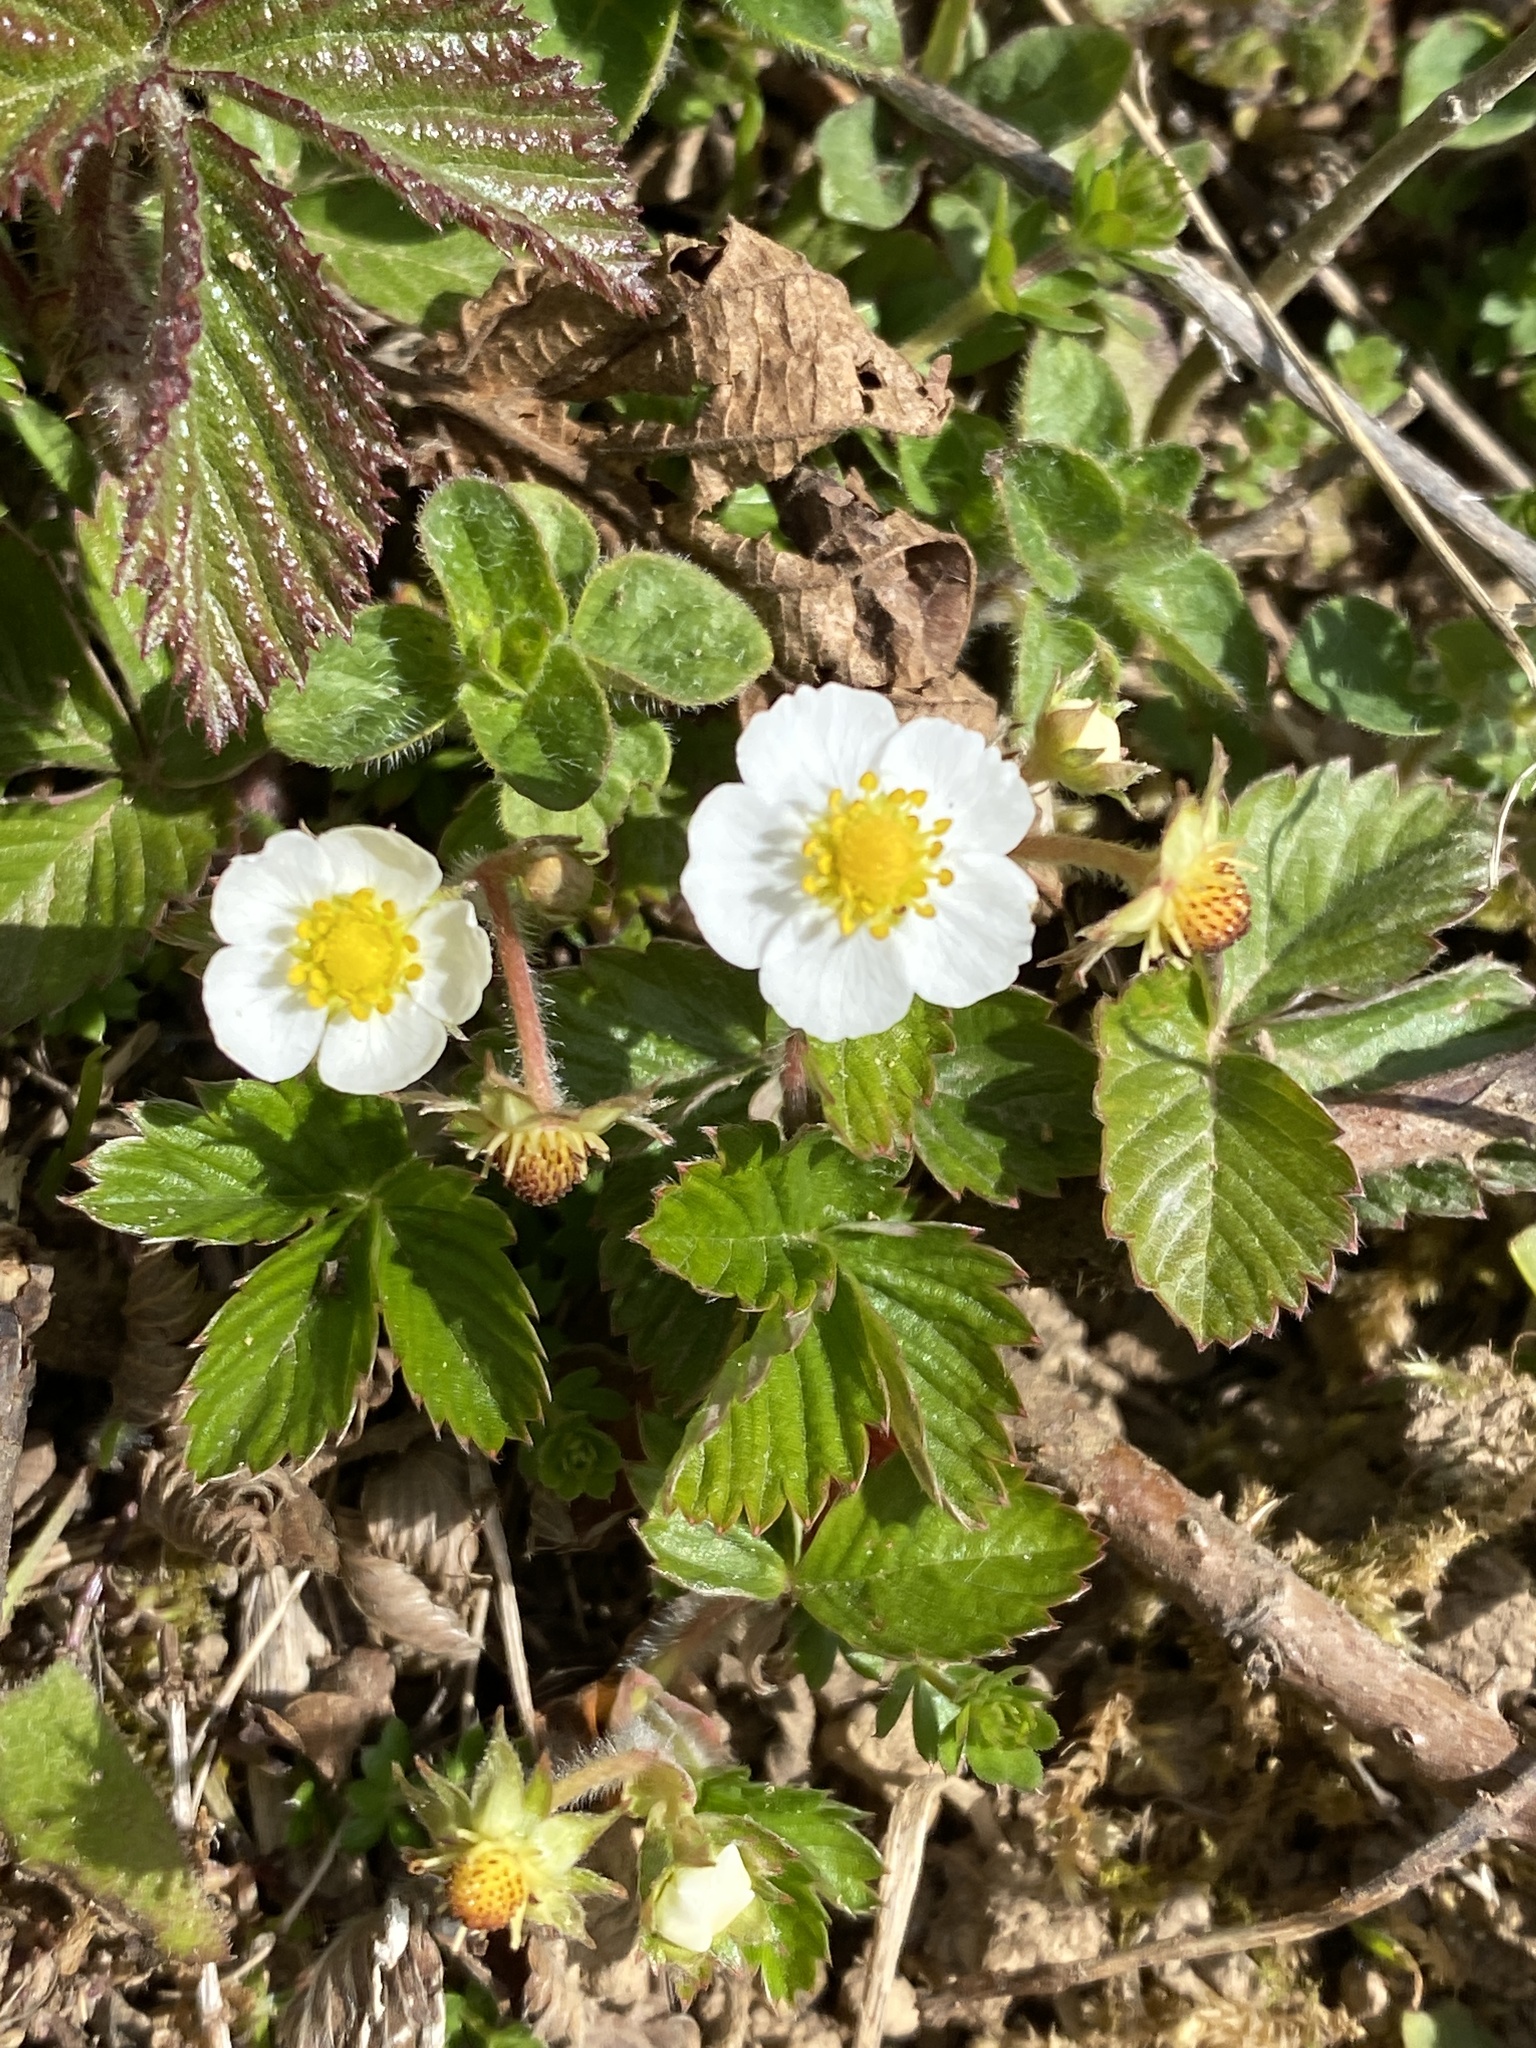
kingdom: Plantae
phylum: Tracheophyta
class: Magnoliopsida
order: Rosales
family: Rosaceae
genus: Fragaria
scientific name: Fragaria vesca
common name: Wild strawberry
